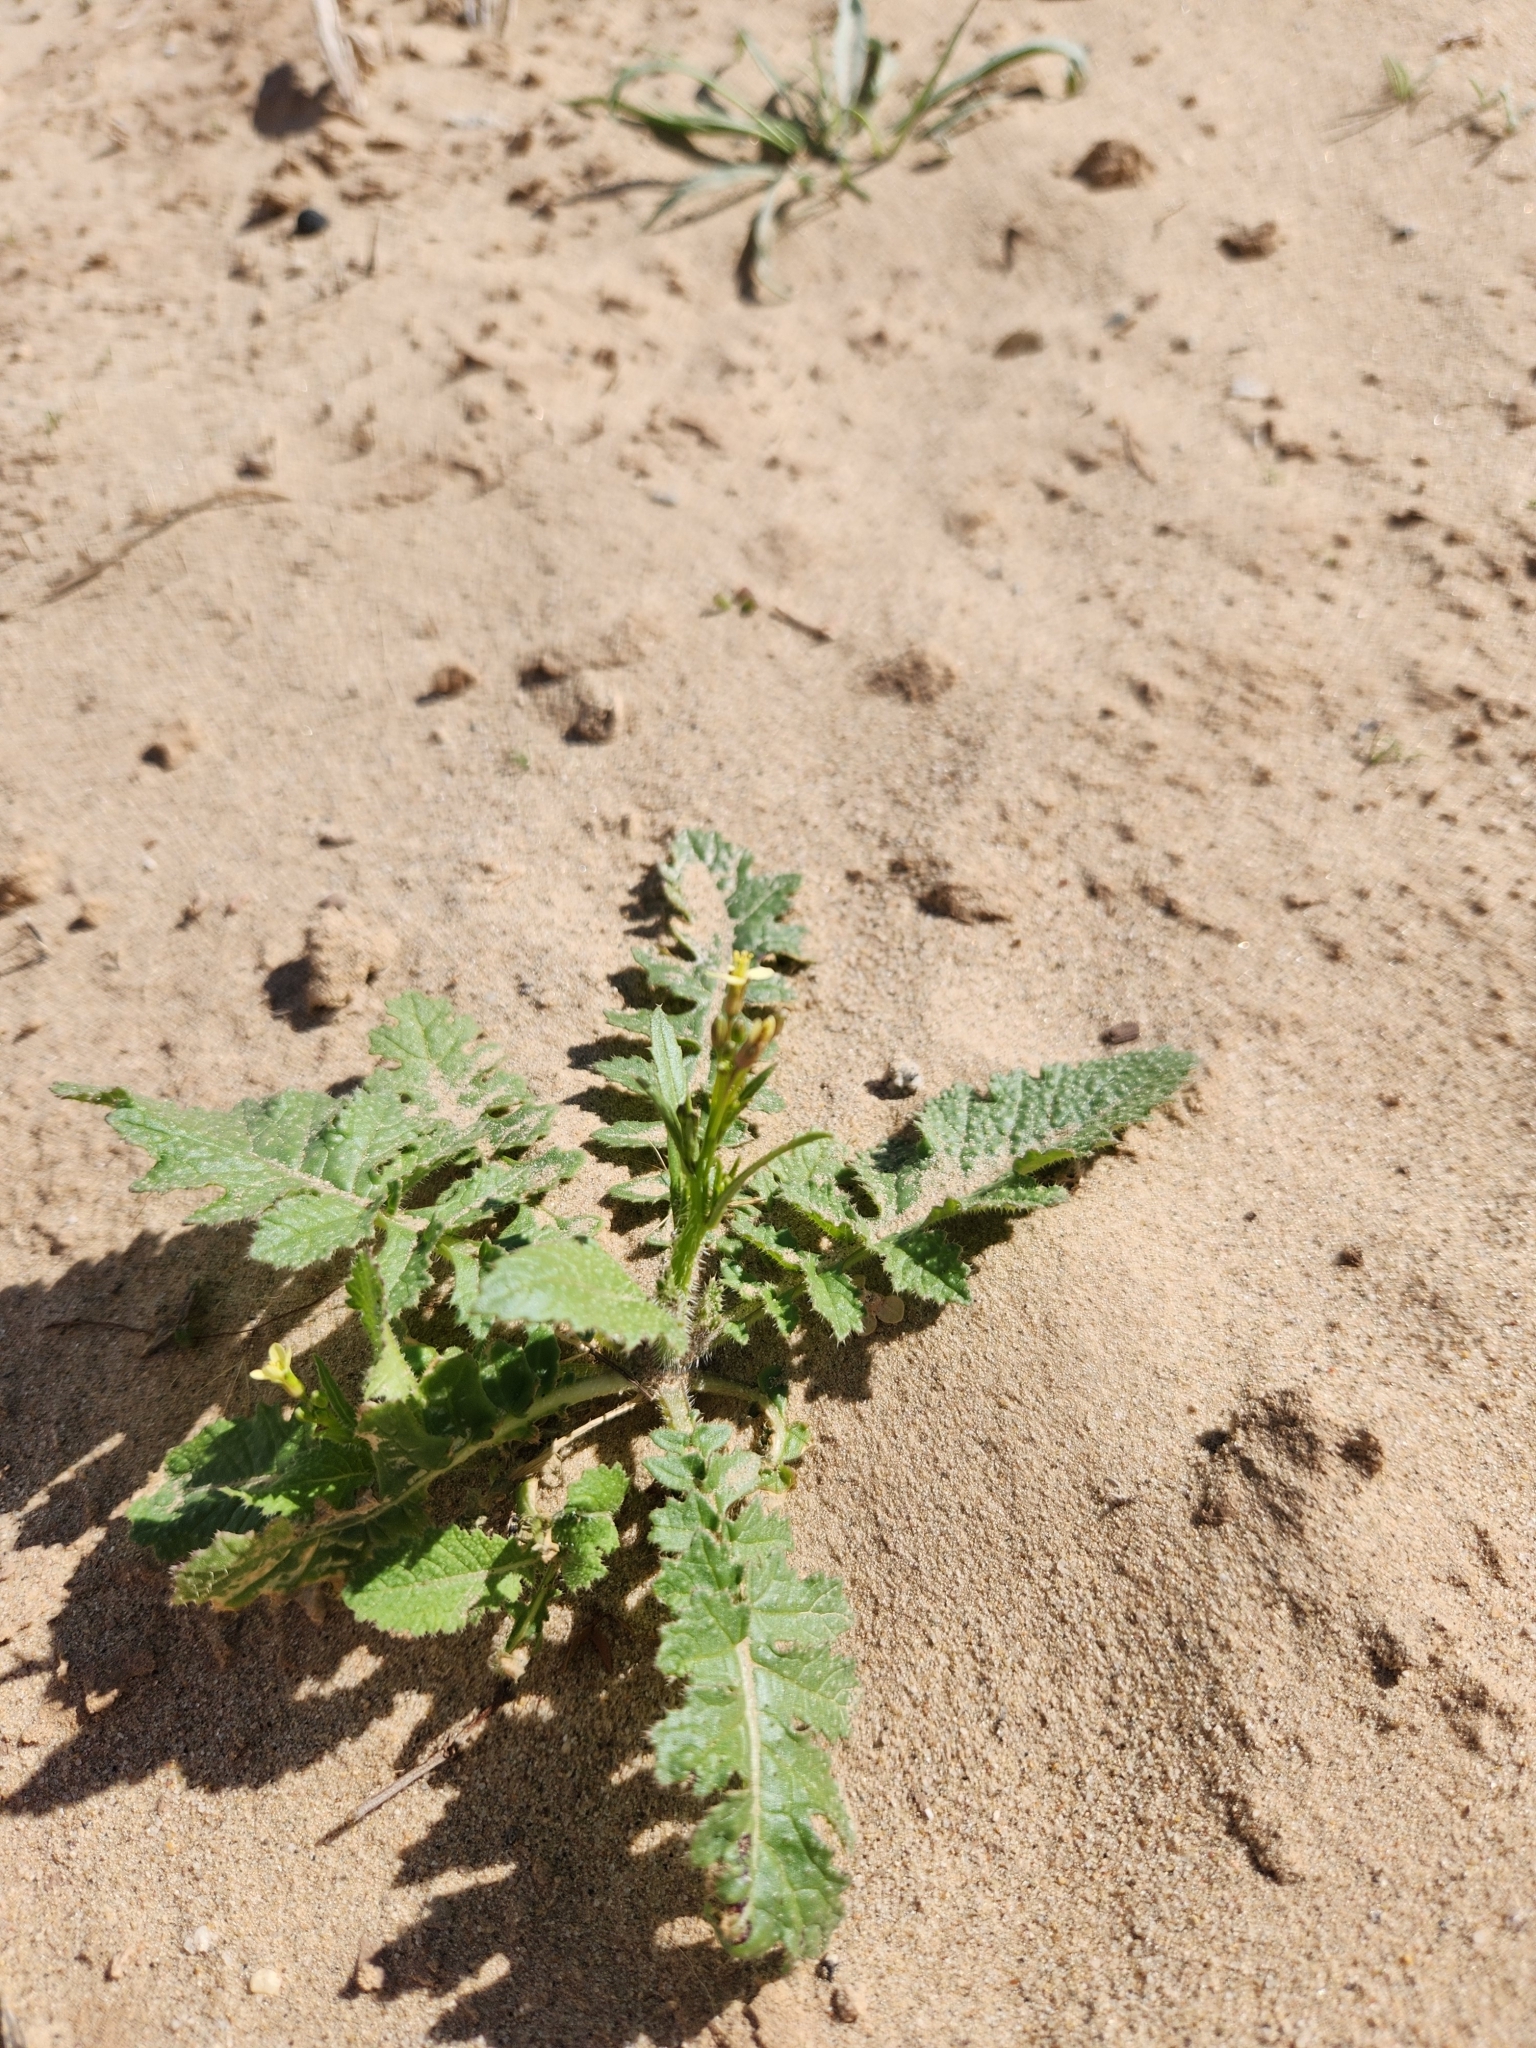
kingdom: Plantae
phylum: Tracheophyta
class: Magnoliopsida
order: Brassicales
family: Brassicaceae
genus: Brassica
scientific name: Brassica tournefortii
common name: Pale cabbage
